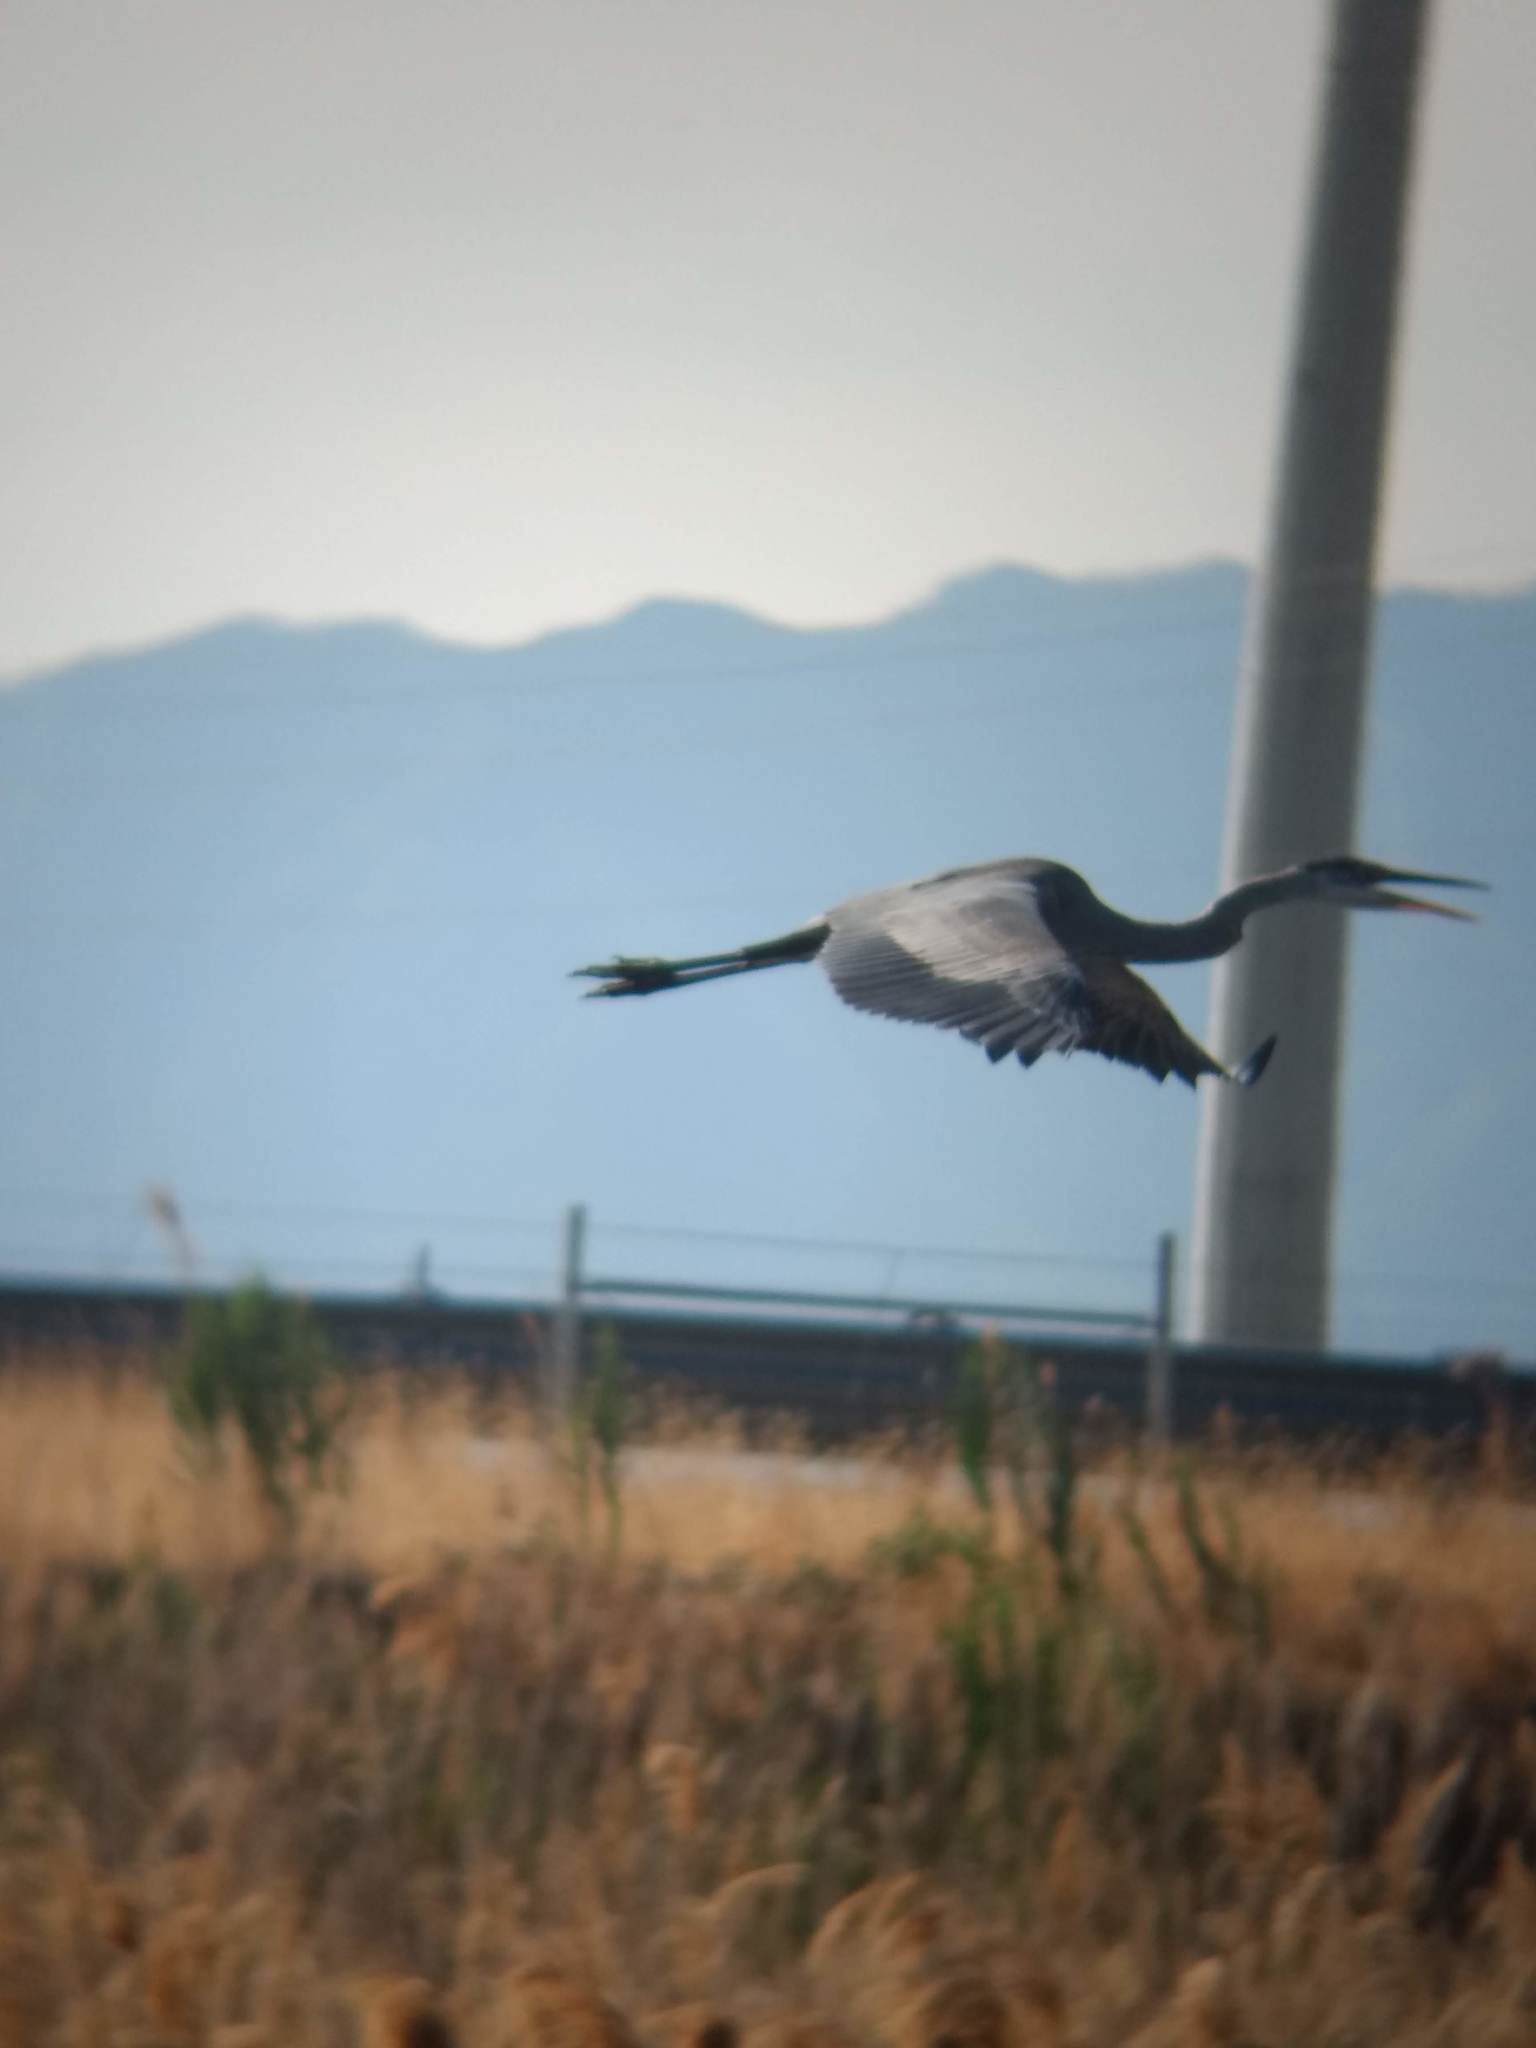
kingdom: Animalia
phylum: Chordata
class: Aves
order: Pelecaniformes
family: Ardeidae
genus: Ardea
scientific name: Ardea herodias
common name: Great blue heron
